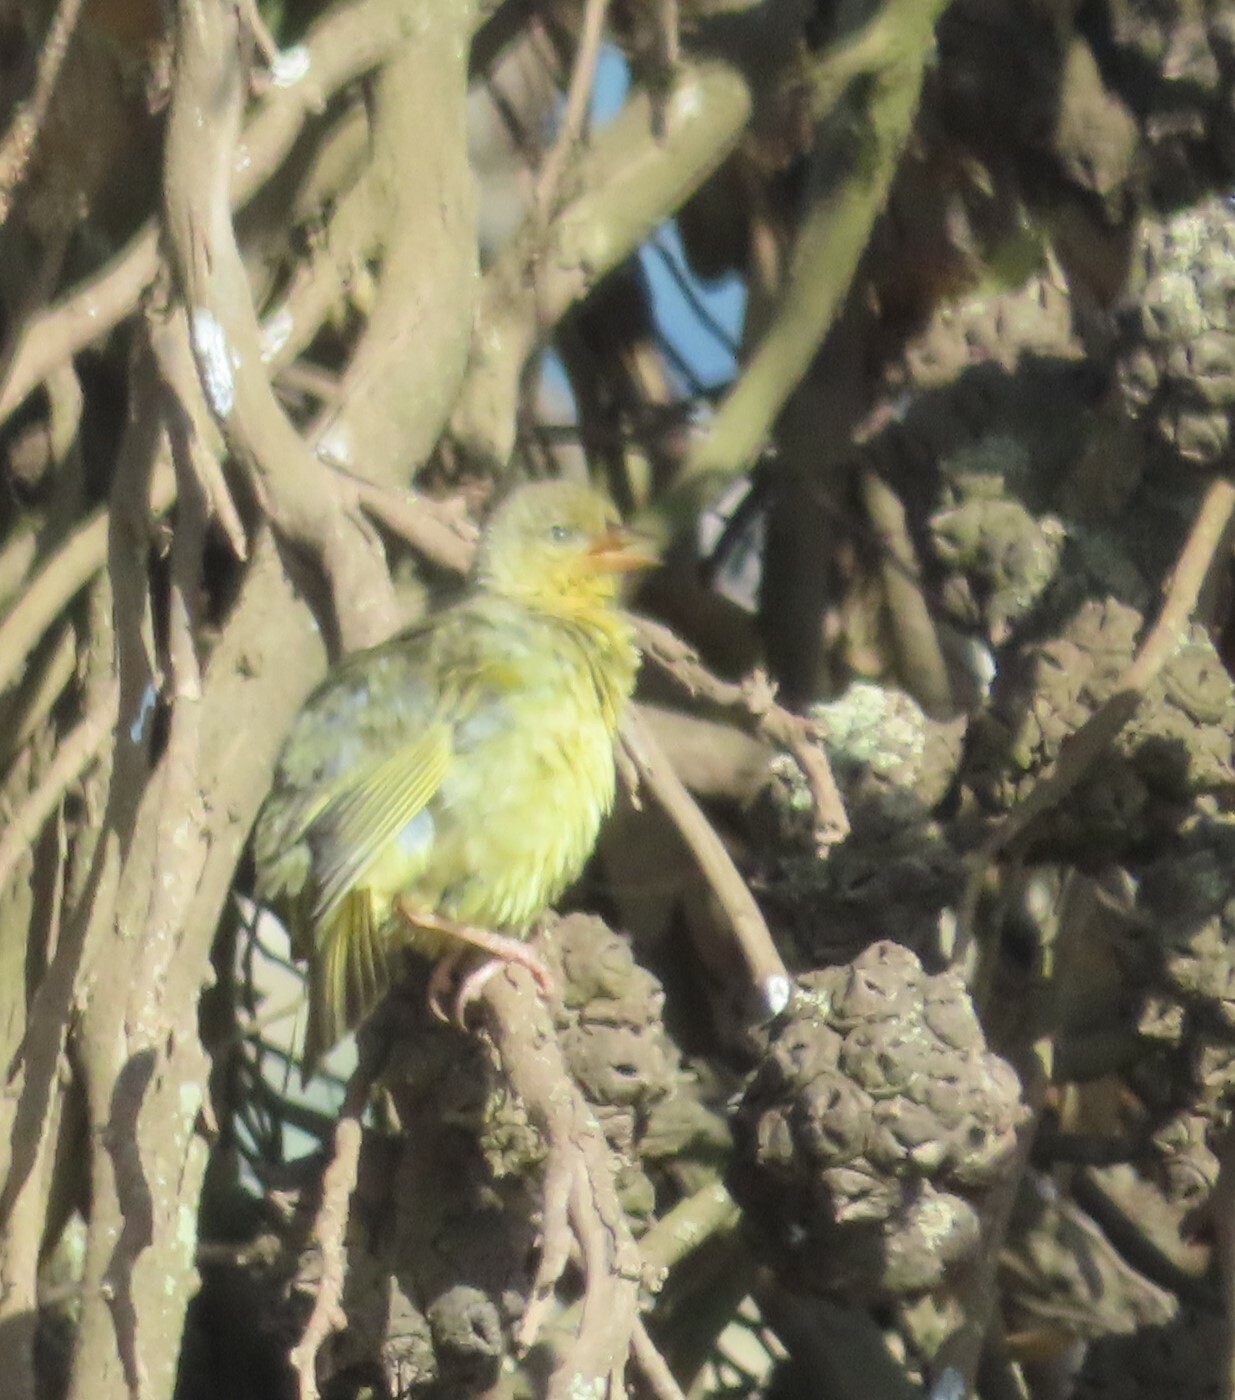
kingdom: Animalia
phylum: Chordata
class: Aves
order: Passeriformes
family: Ploceidae
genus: Ploceus
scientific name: Ploceus capensis
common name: Cape weaver
